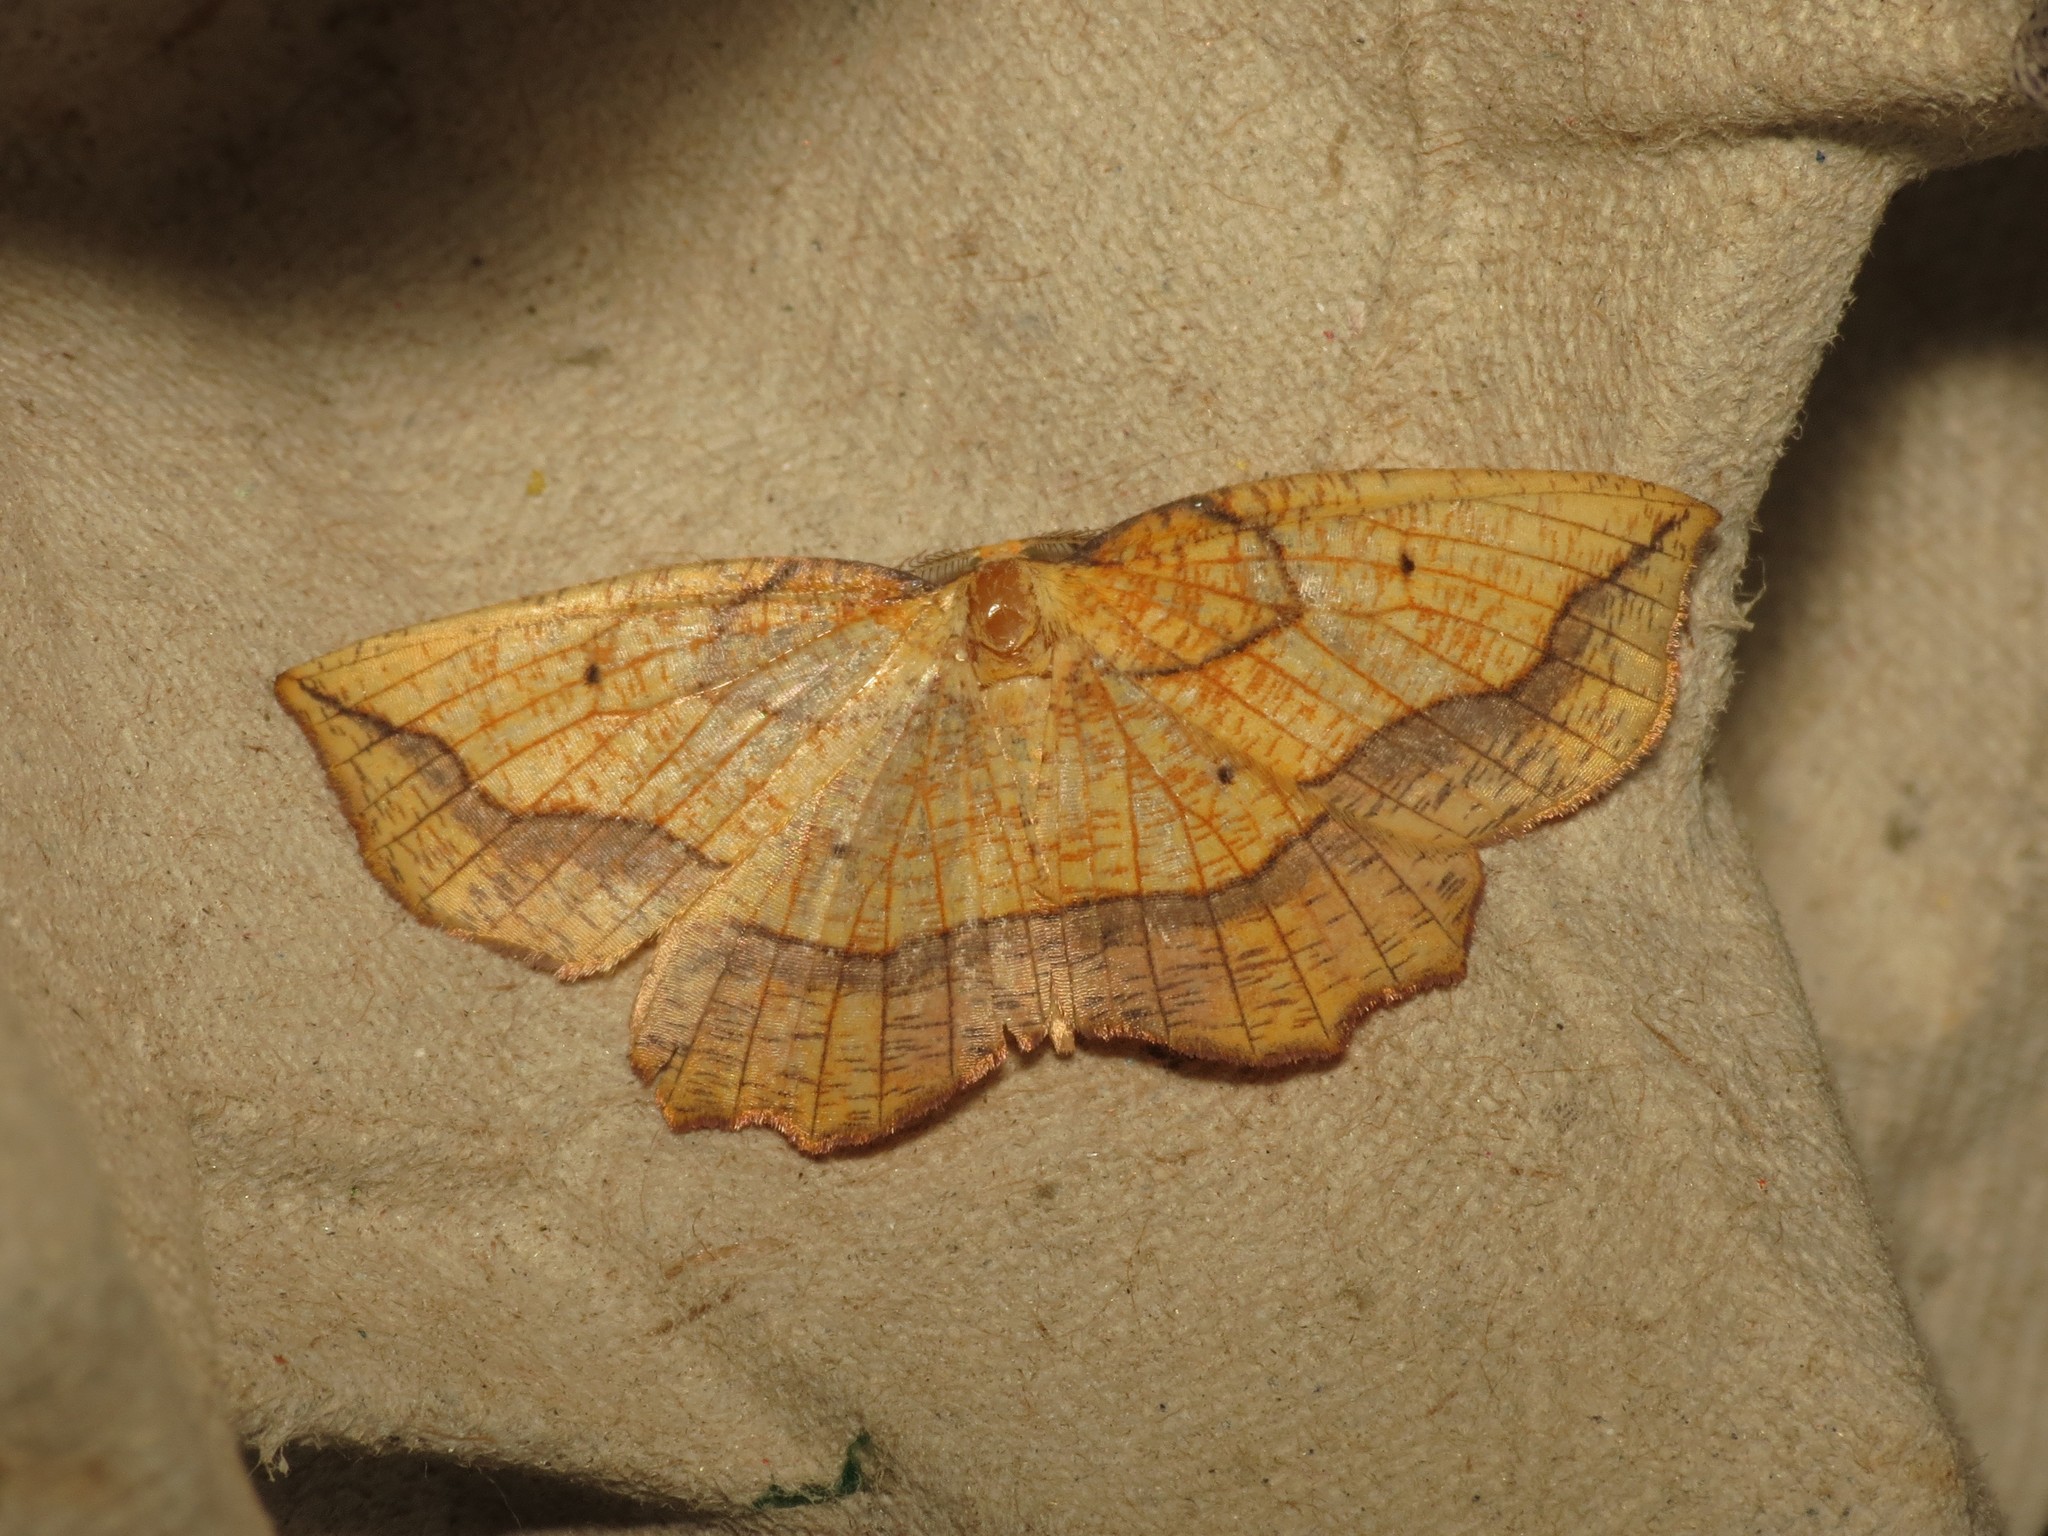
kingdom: Animalia
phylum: Arthropoda
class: Insecta
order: Lepidoptera
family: Geometridae
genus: Epione
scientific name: Epione repandaria
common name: Bordered beauty
